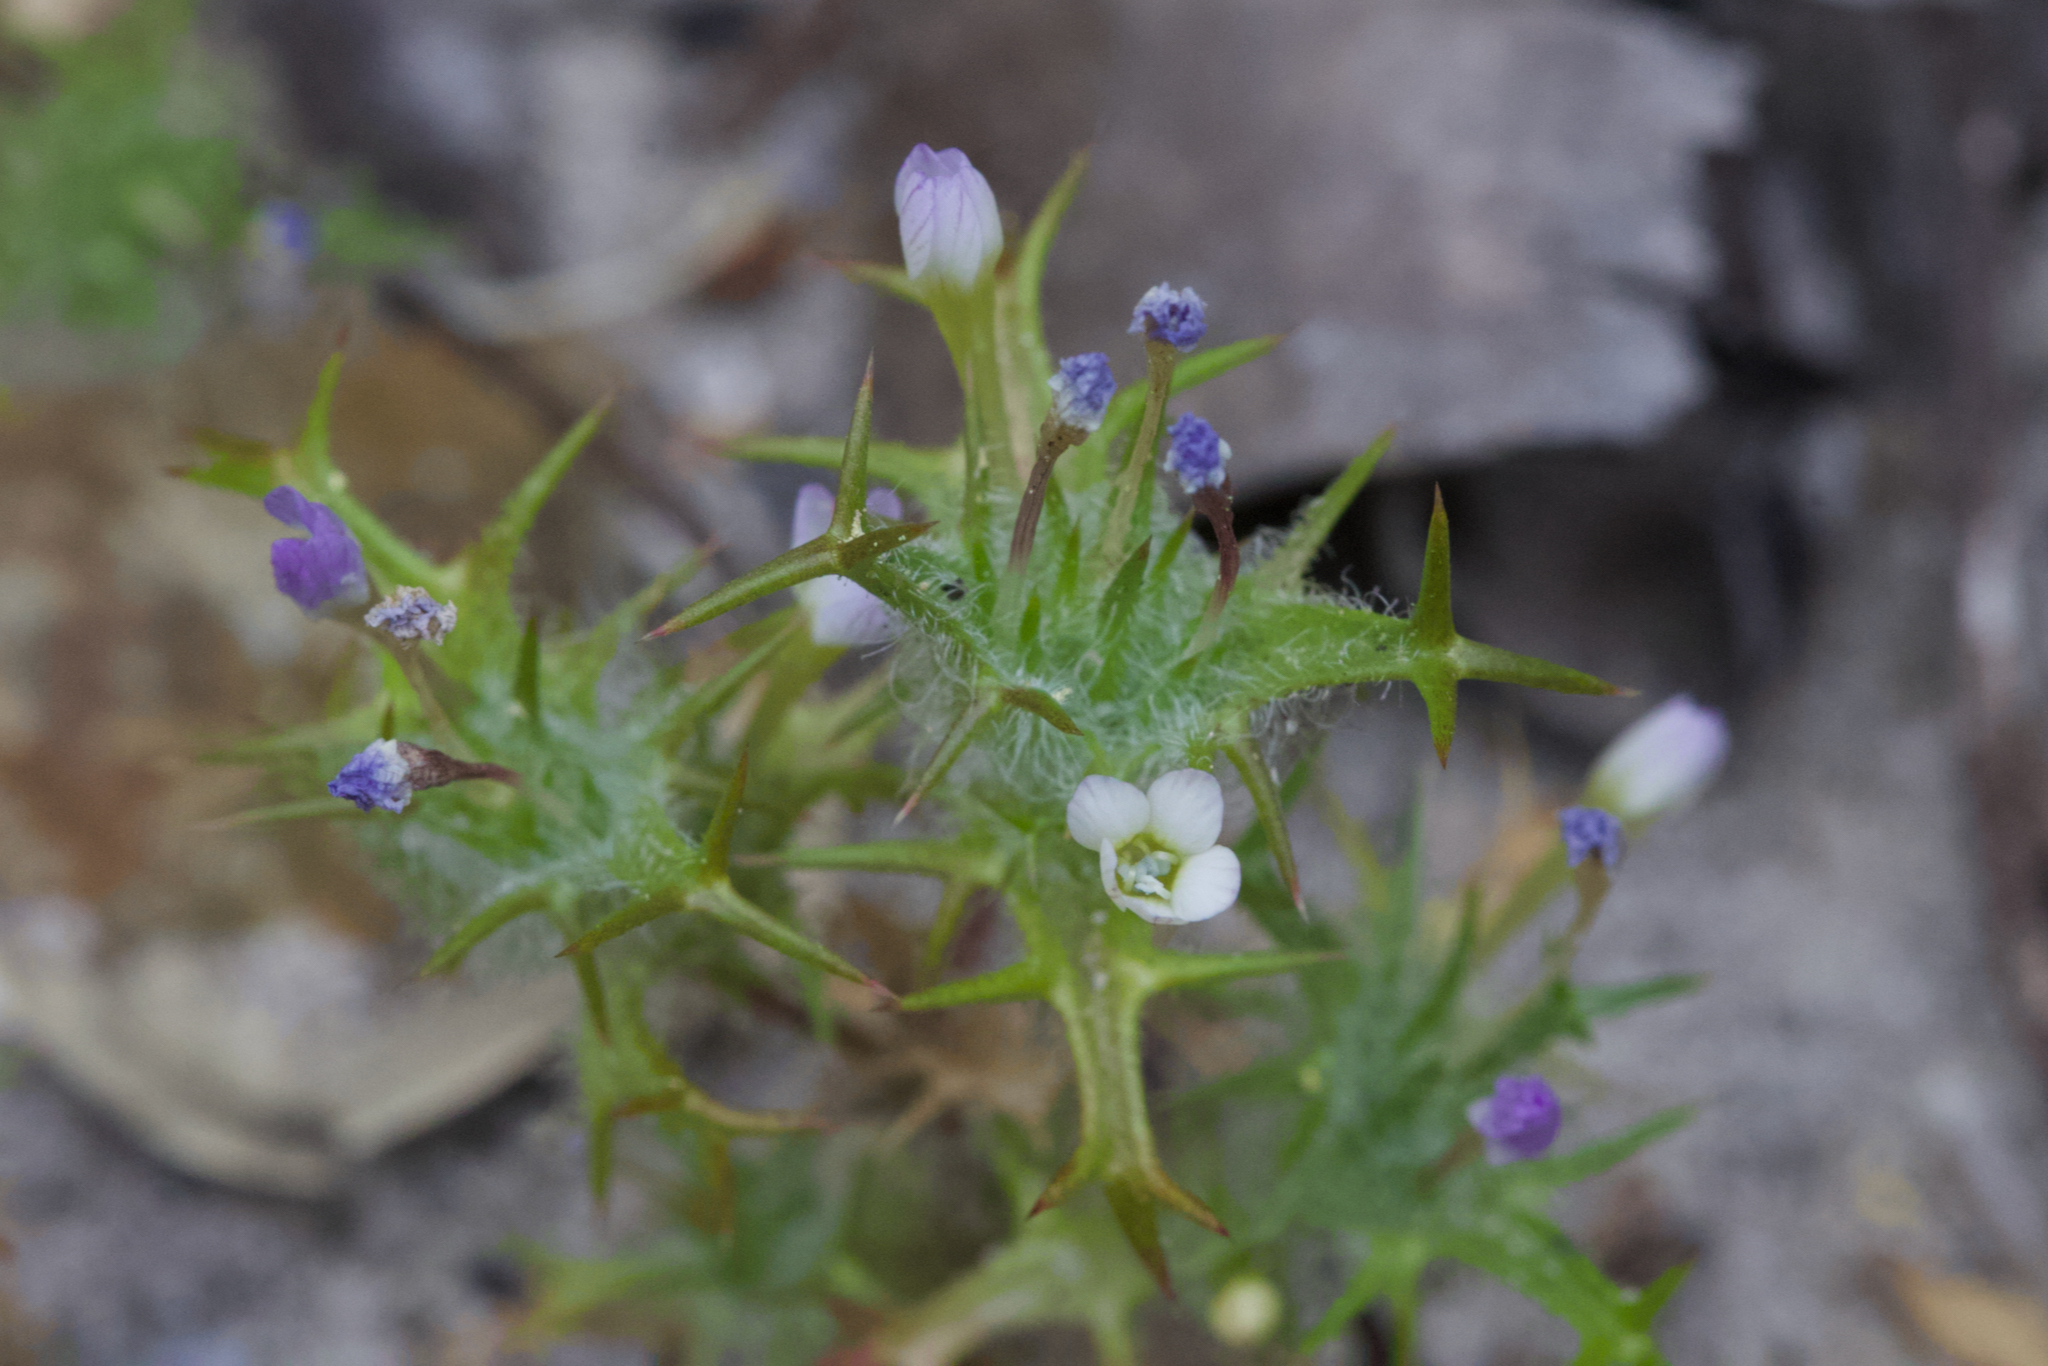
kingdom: Plantae
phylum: Tracheophyta
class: Magnoliopsida
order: Ericales
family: Polemoniaceae
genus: Navarretia
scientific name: Navarretia hamata
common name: Hooked navarretia
